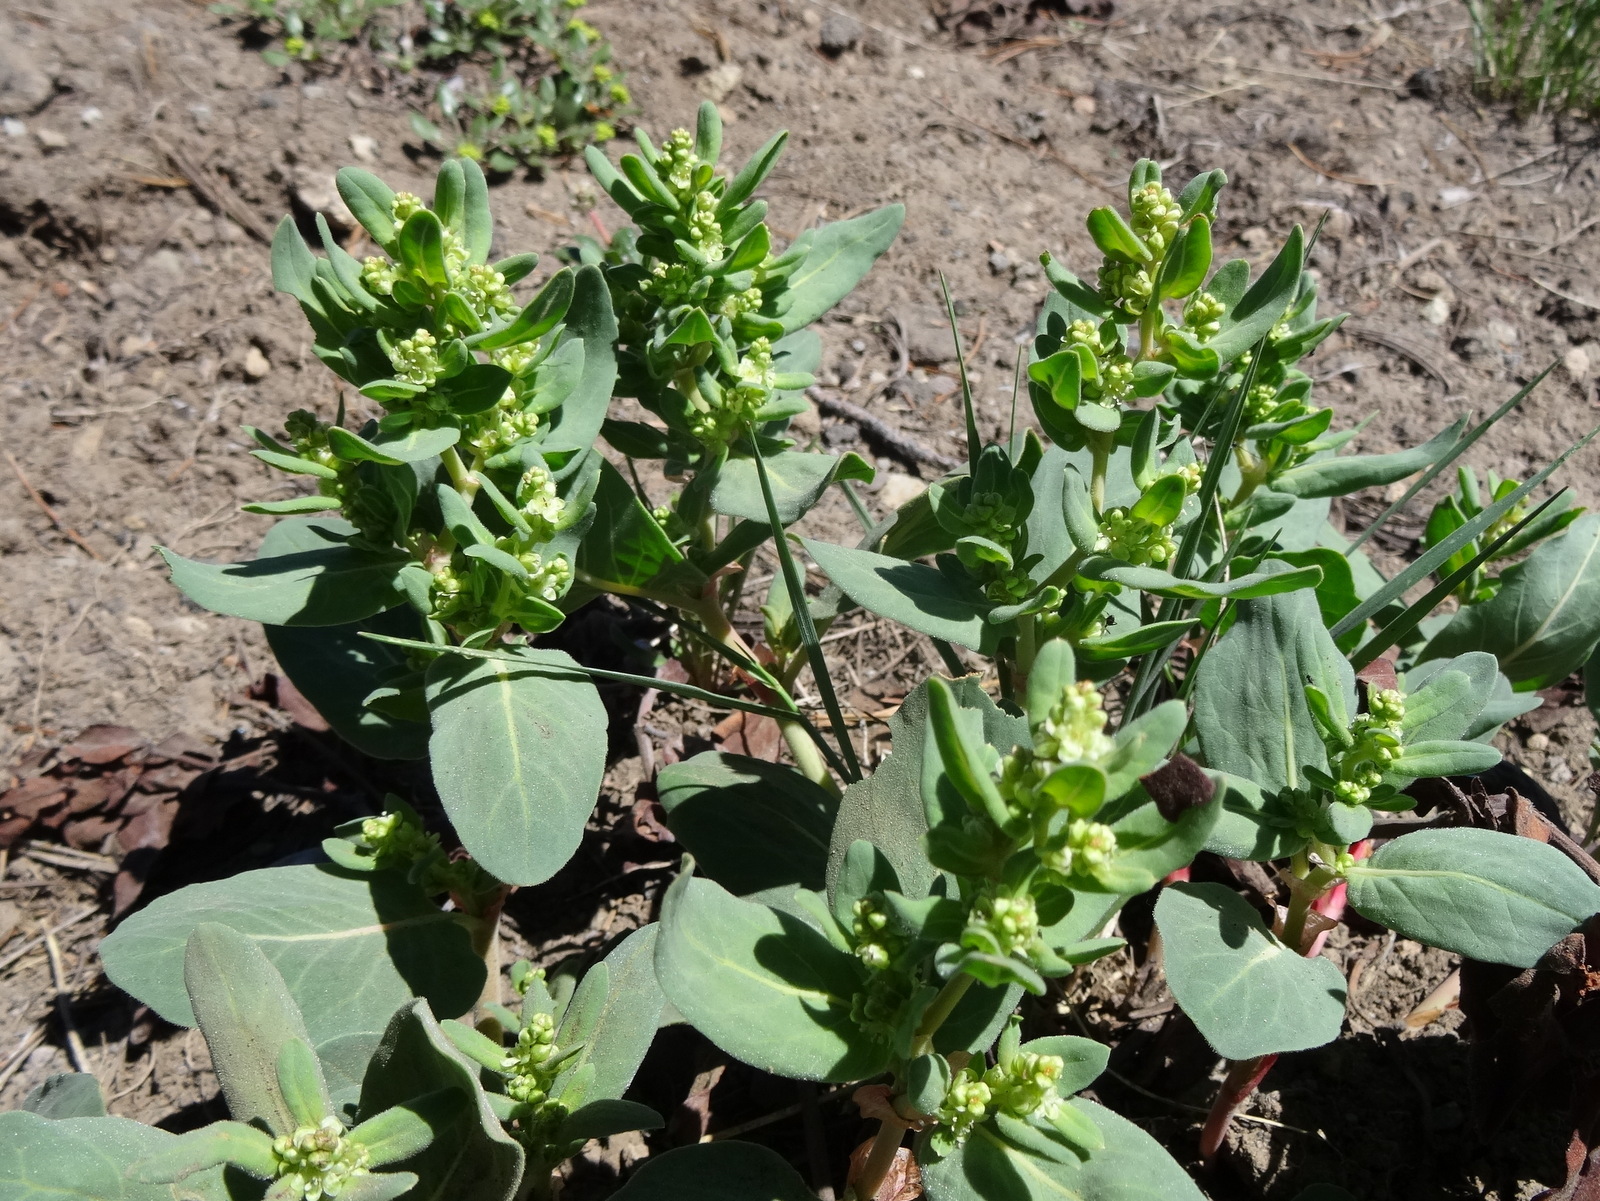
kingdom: Plantae
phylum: Tracheophyta
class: Magnoliopsida
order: Caryophyllales
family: Polygonaceae
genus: Koenigia
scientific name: Koenigia davisiae
